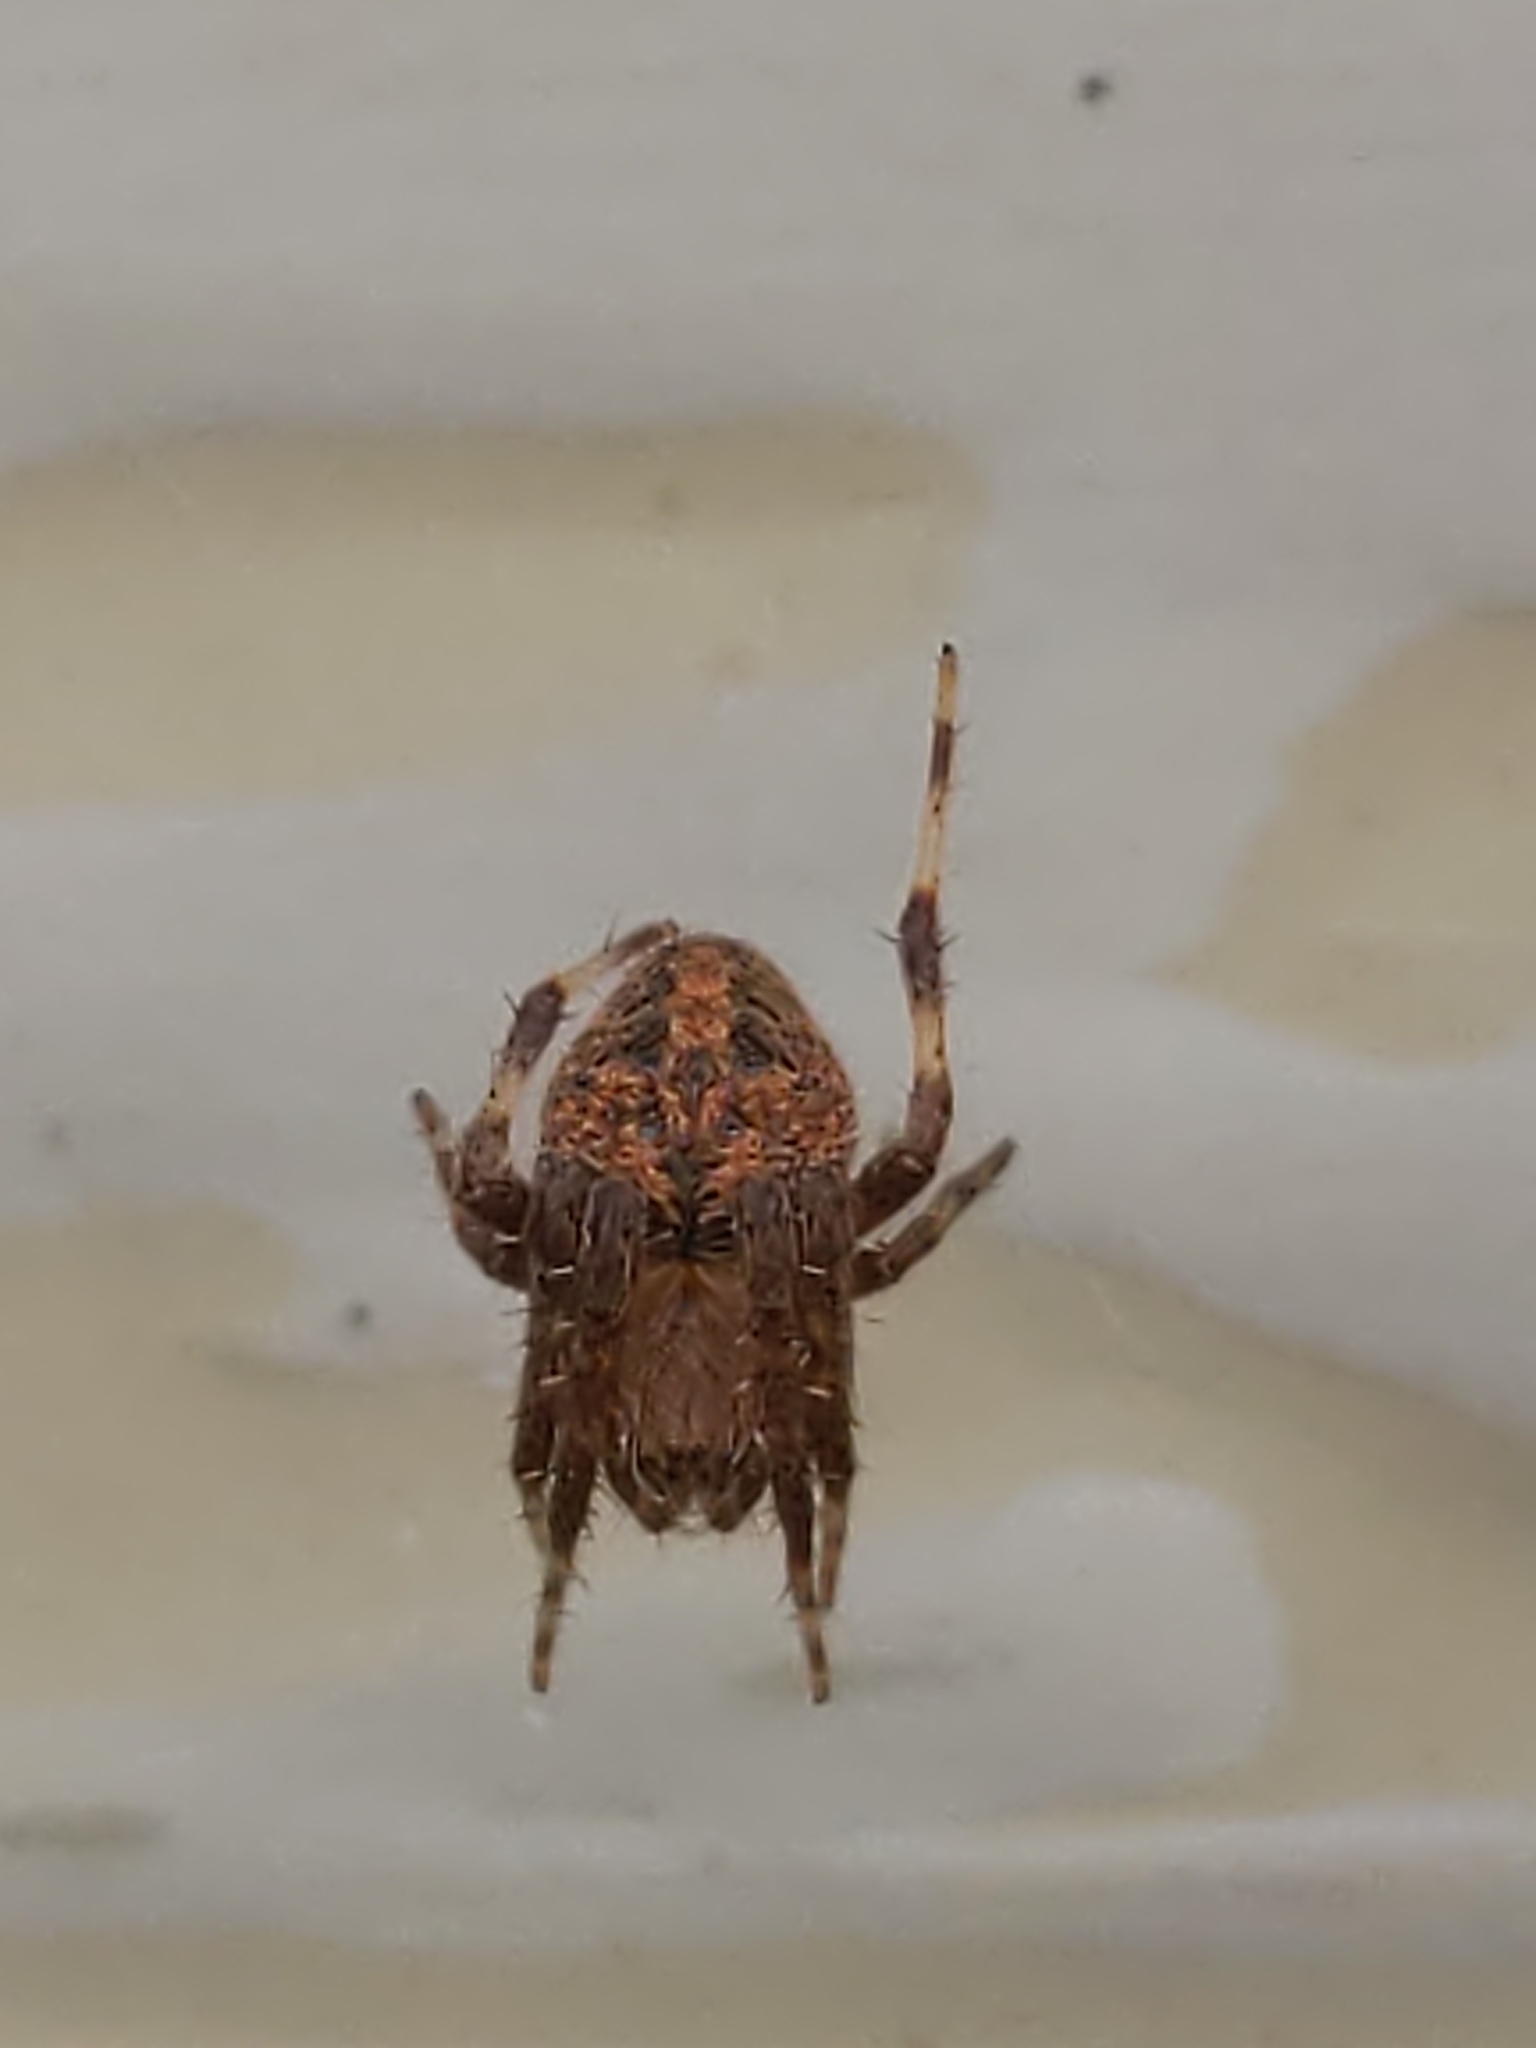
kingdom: Animalia
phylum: Arthropoda
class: Arachnida
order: Araneae
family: Araneidae
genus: Neoscona
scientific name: Neoscona crucifera
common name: Spotted orbweaver
